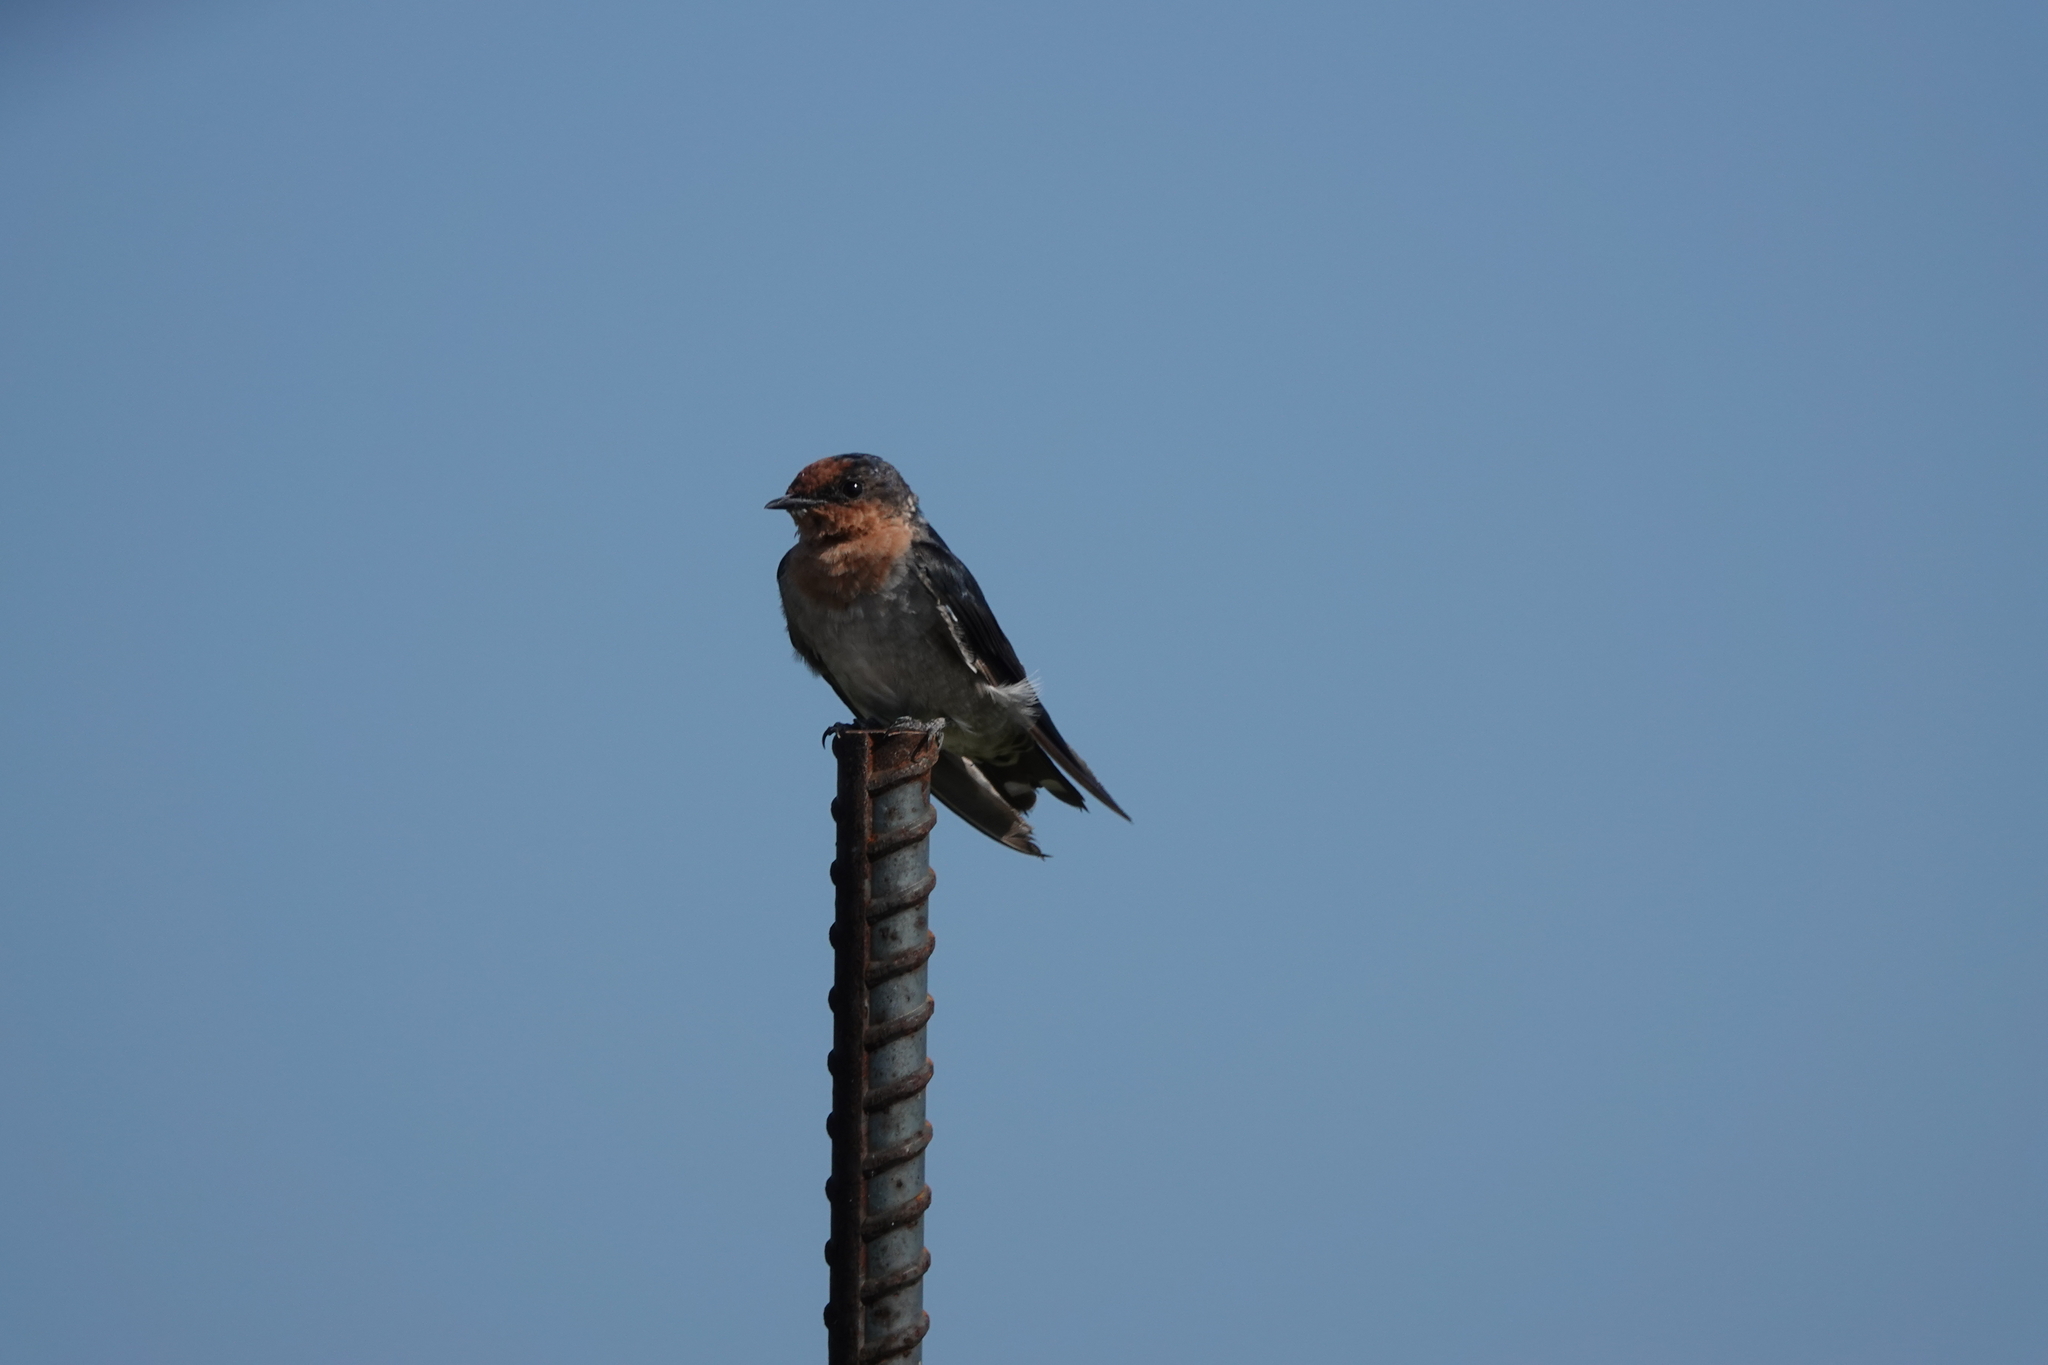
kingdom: Animalia
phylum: Chordata
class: Aves
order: Passeriformes
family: Hirundinidae
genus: Hirundo
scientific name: Hirundo tahitica
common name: Pacific swallow
